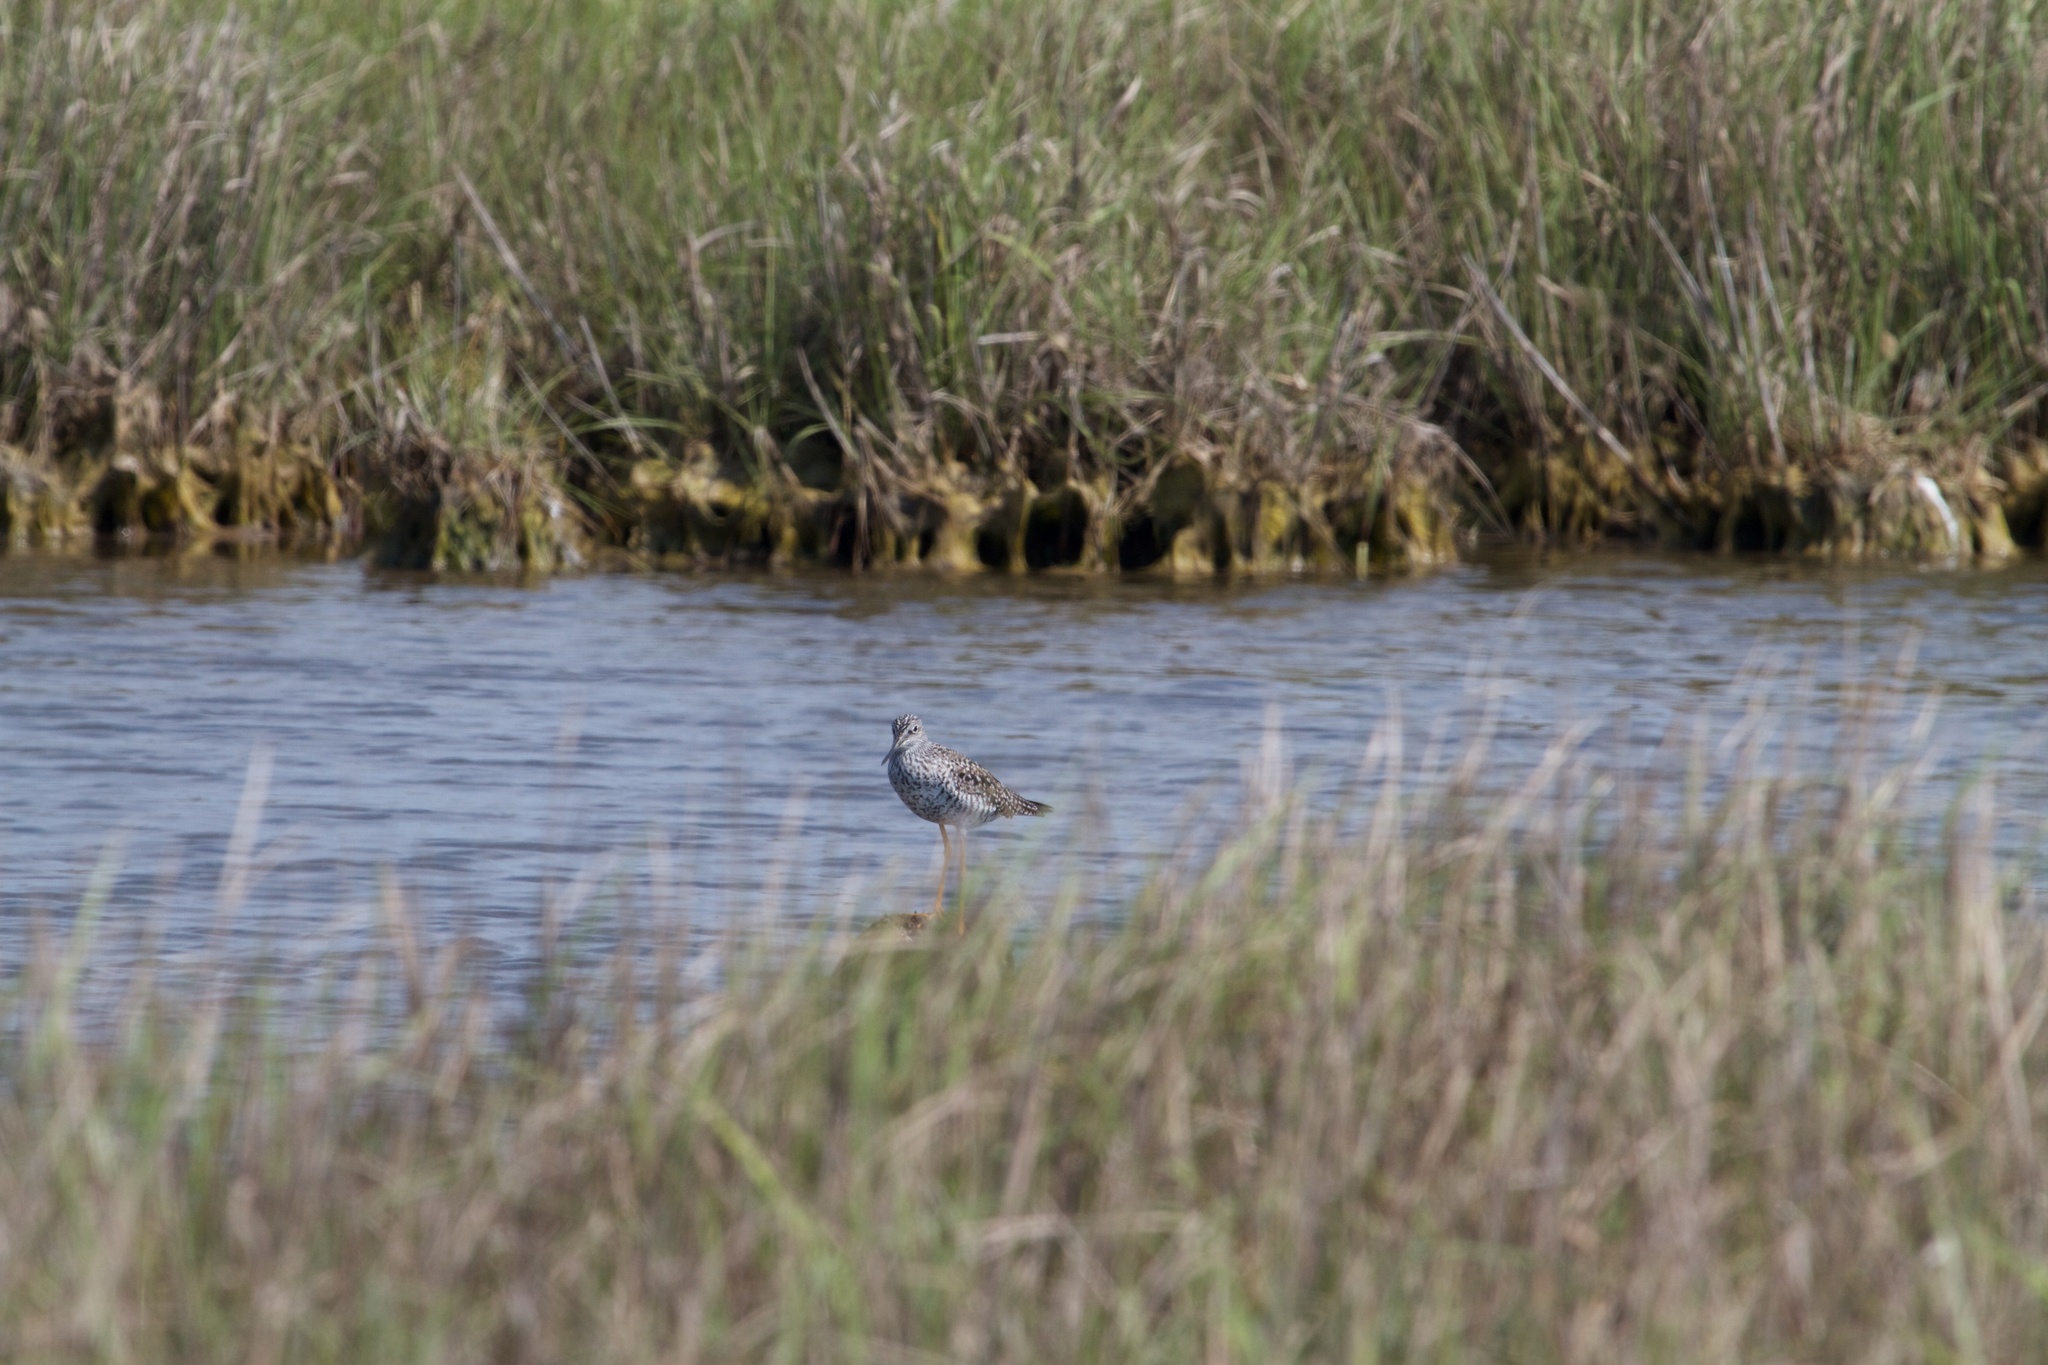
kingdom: Animalia
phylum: Chordata
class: Aves
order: Charadriiformes
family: Scolopacidae
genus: Tringa
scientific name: Tringa melanoleuca
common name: Greater yellowlegs
